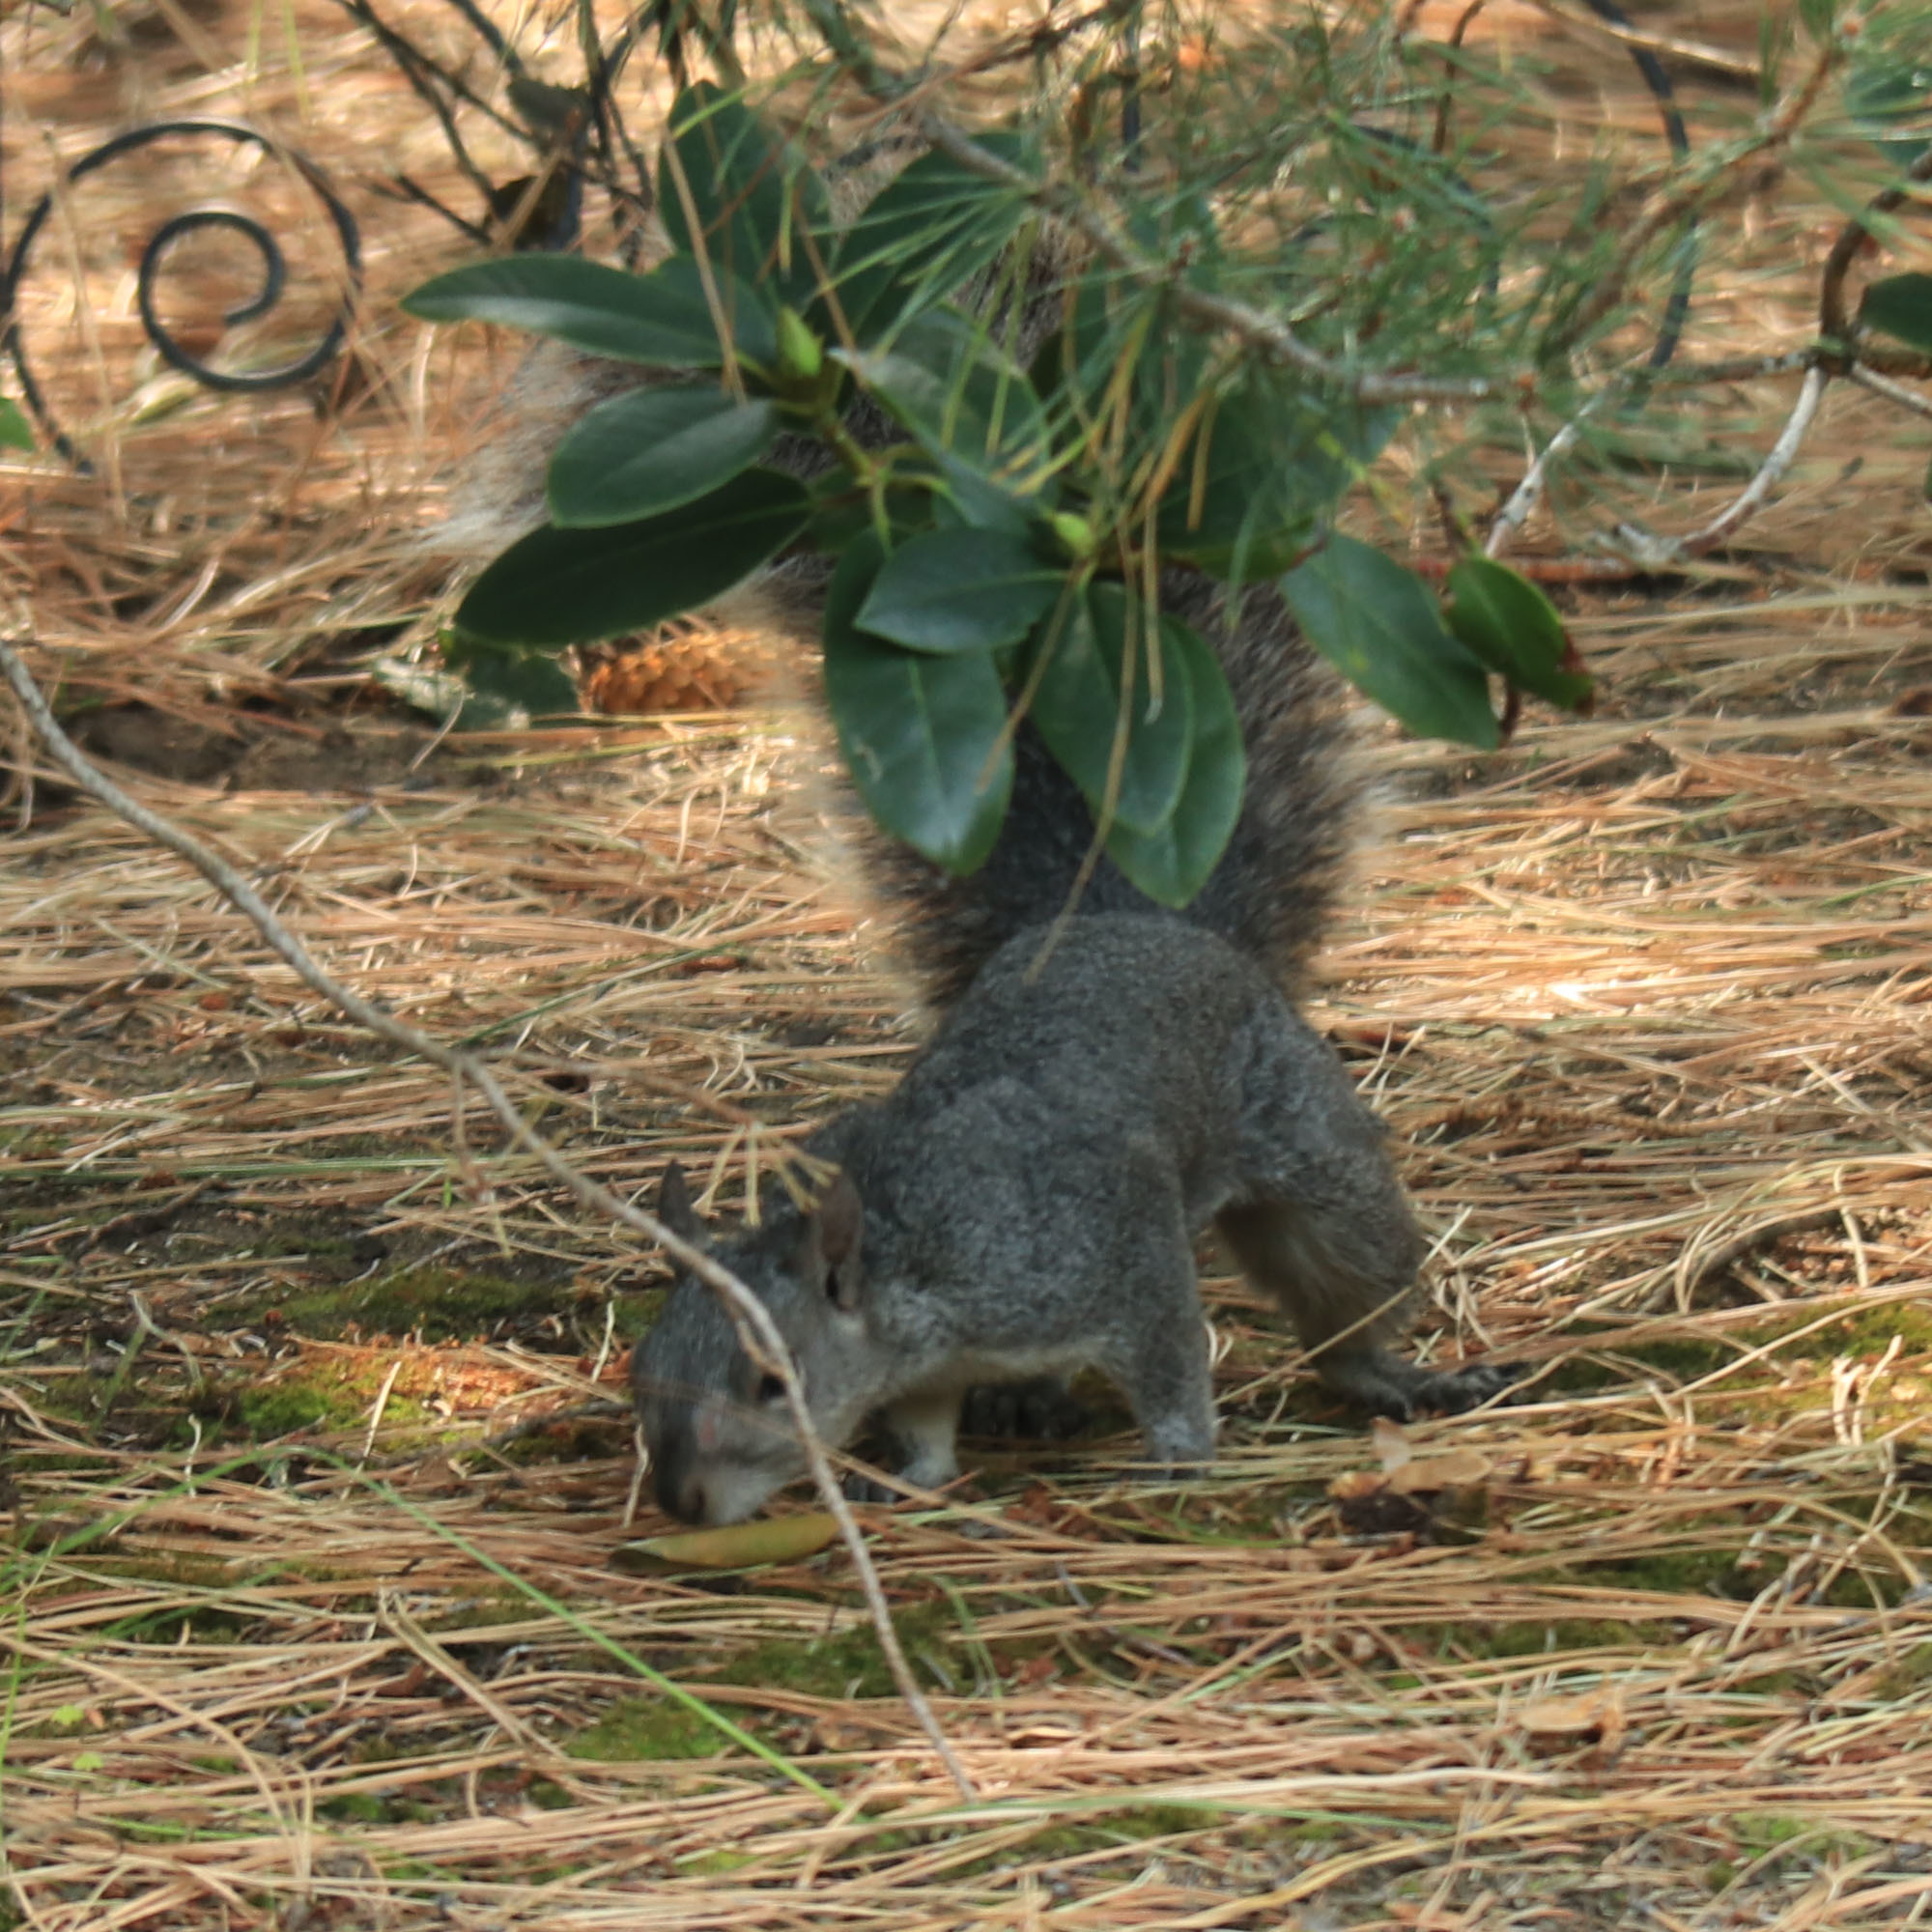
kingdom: Animalia
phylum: Chordata
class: Mammalia
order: Rodentia
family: Sciuridae
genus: Sciurus
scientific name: Sciurus griseus
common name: Western gray squirrel
